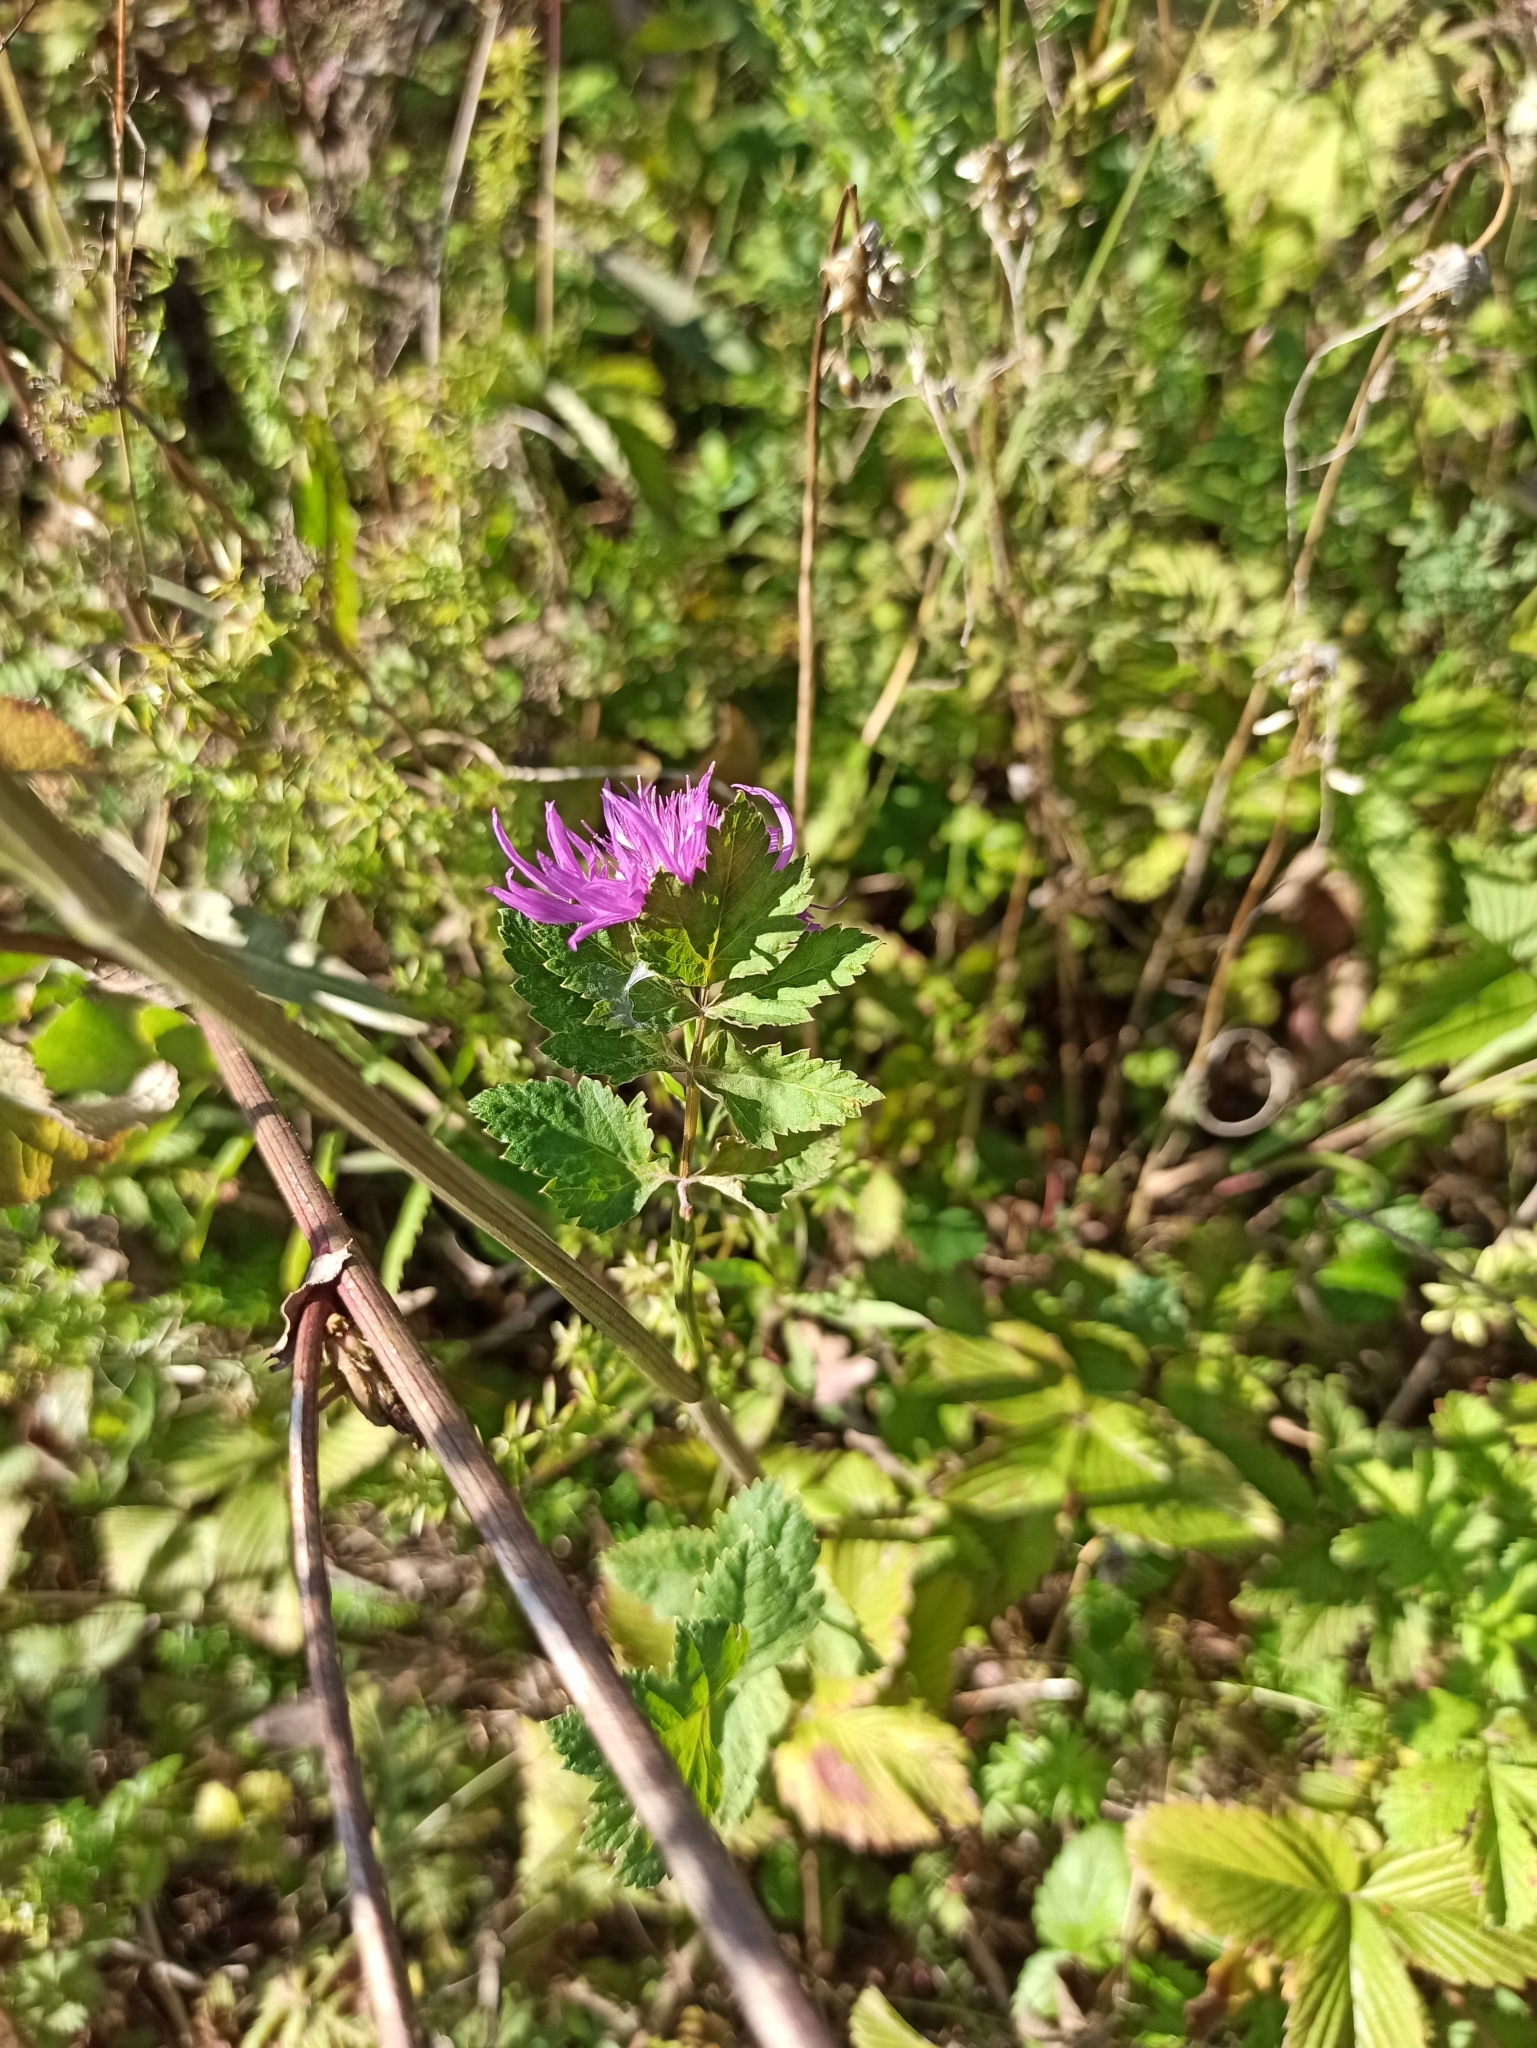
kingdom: Plantae
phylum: Tracheophyta
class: Magnoliopsida
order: Apiales
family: Apiaceae
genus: Pastinaca
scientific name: Pastinaca sativa
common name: Wild parsnip
